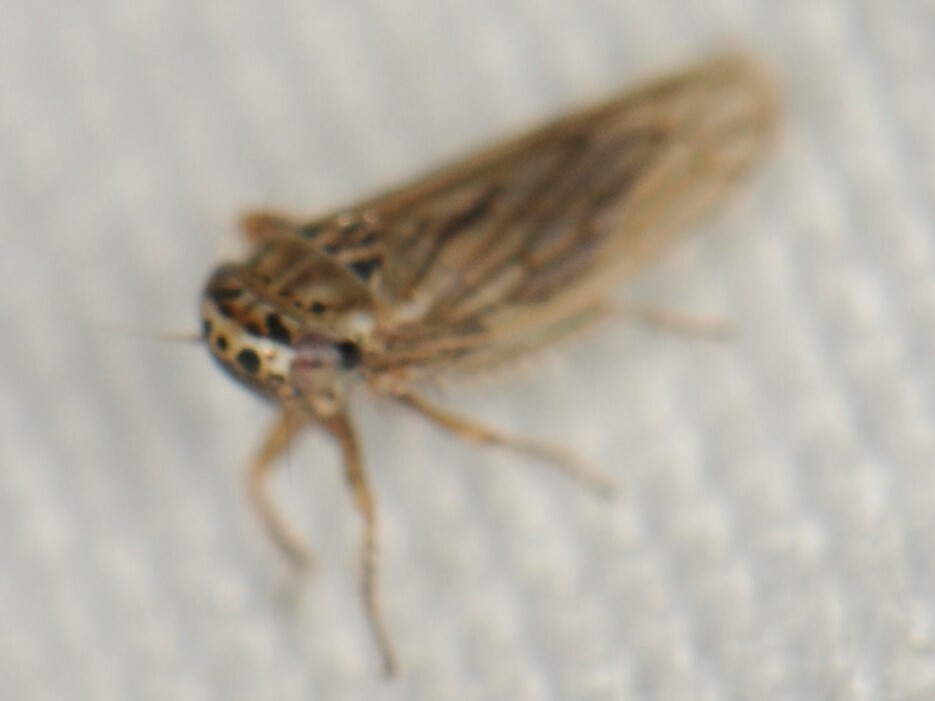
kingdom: Animalia
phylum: Arthropoda
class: Insecta
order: Hemiptera
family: Cicadellidae
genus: Exitianus
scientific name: Exitianus
